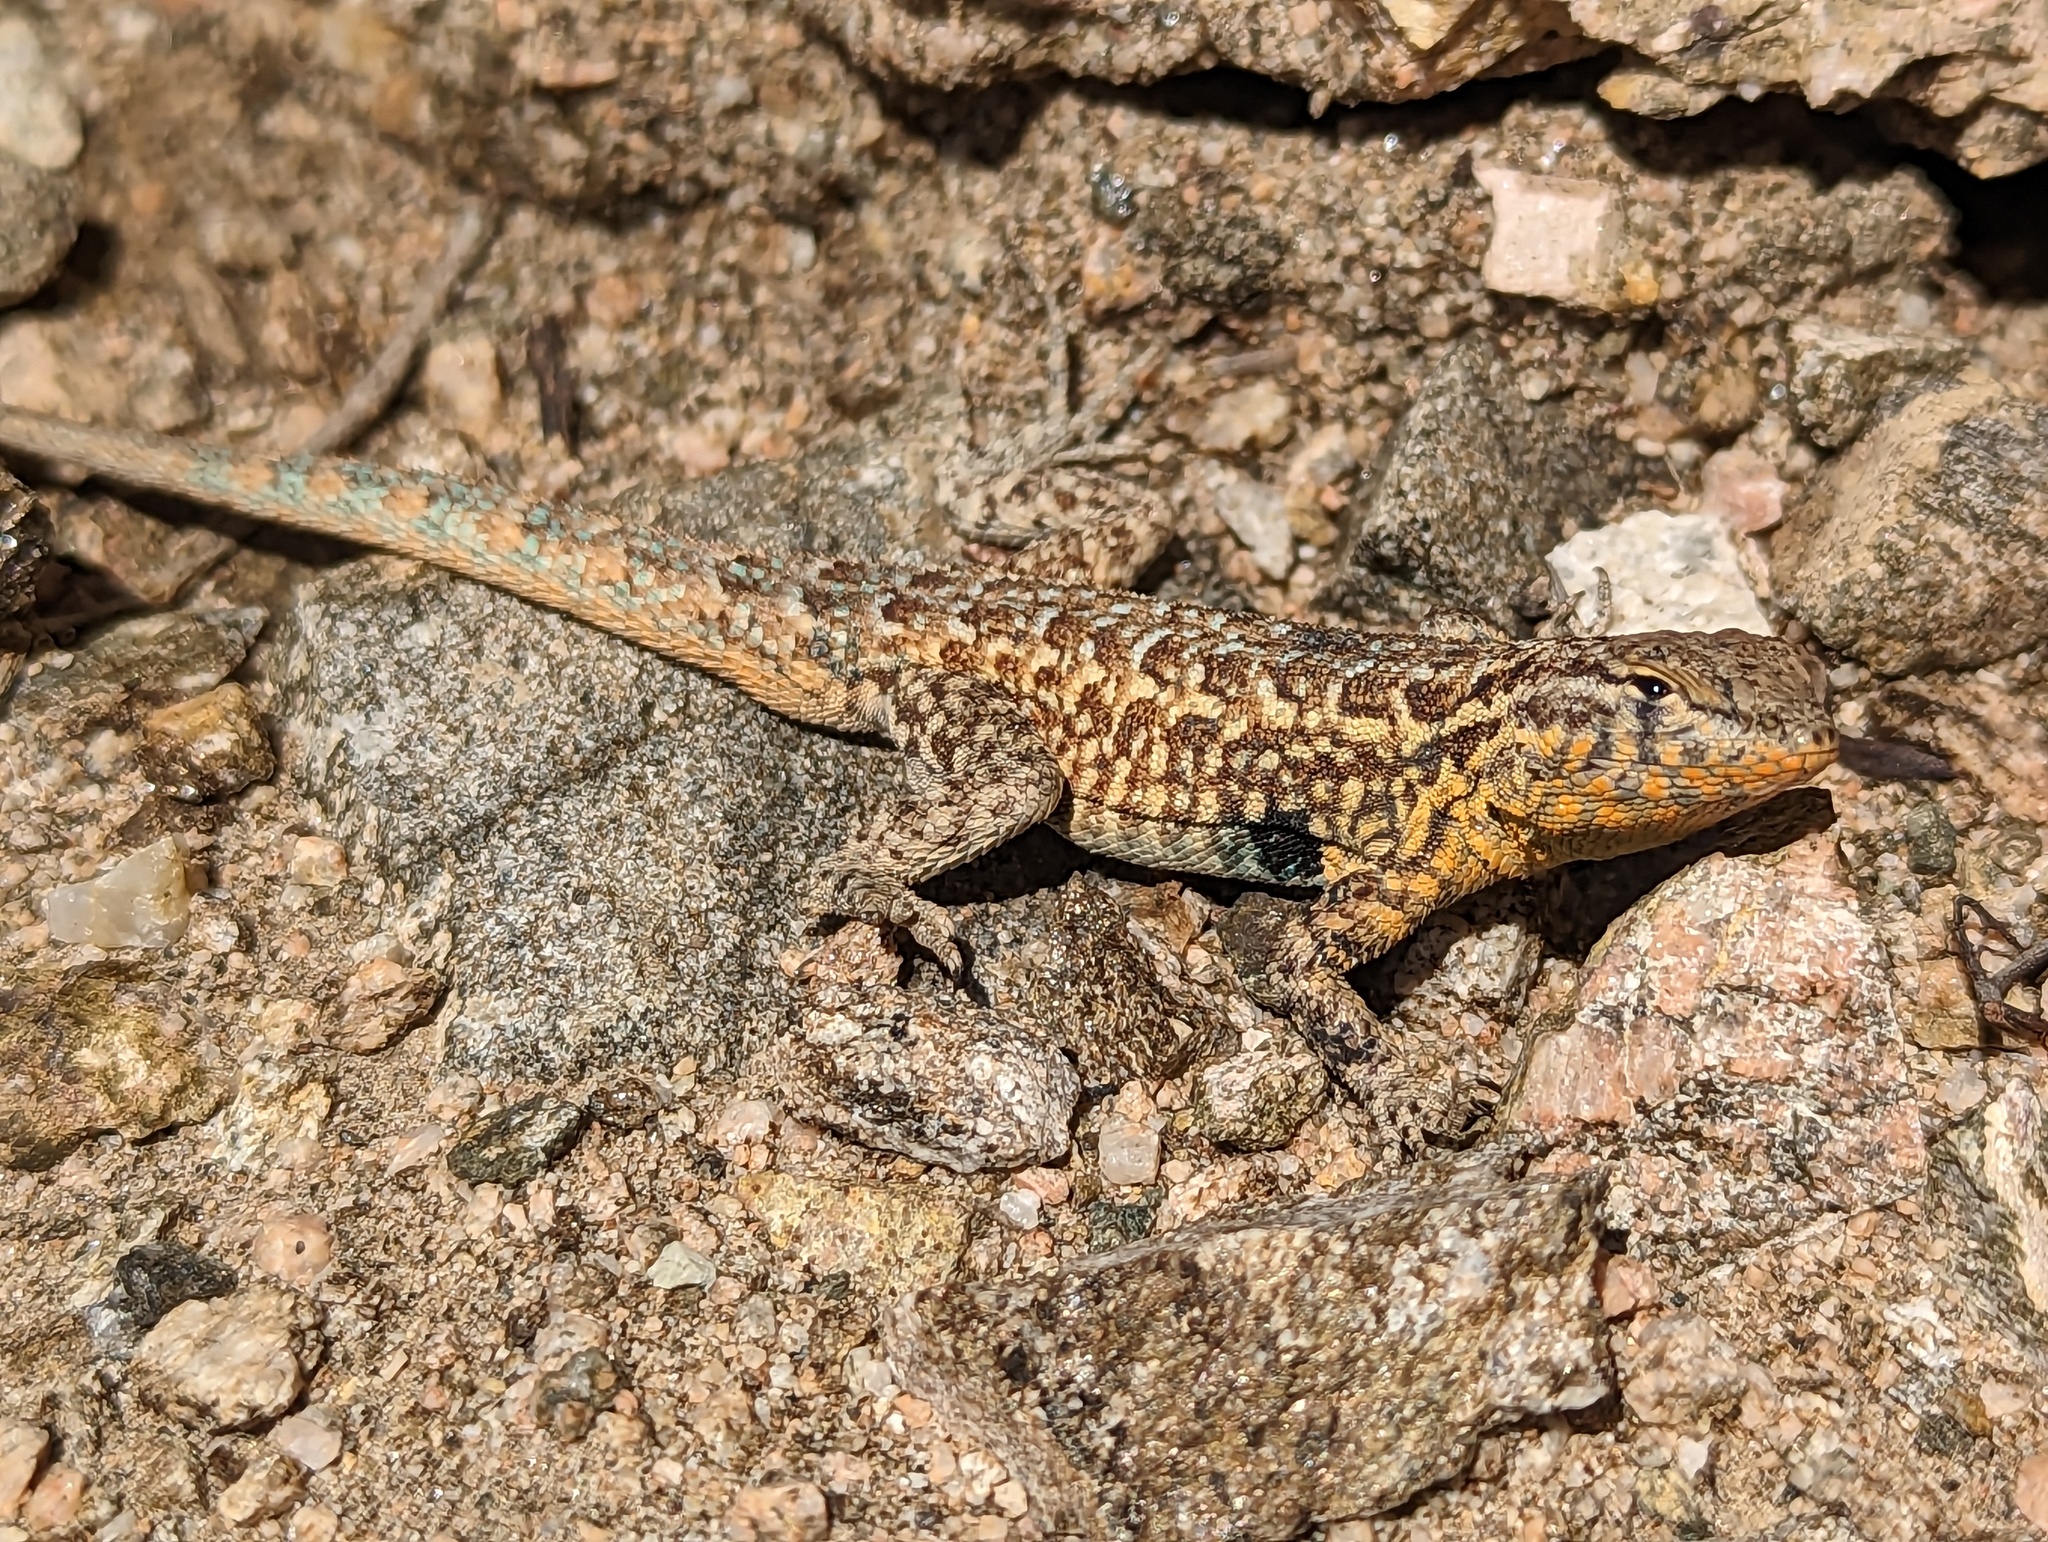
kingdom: Animalia
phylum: Chordata
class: Squamata
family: Phrynosomatidae
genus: Uta
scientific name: Uta stansburiana
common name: Side-blotched lizard
